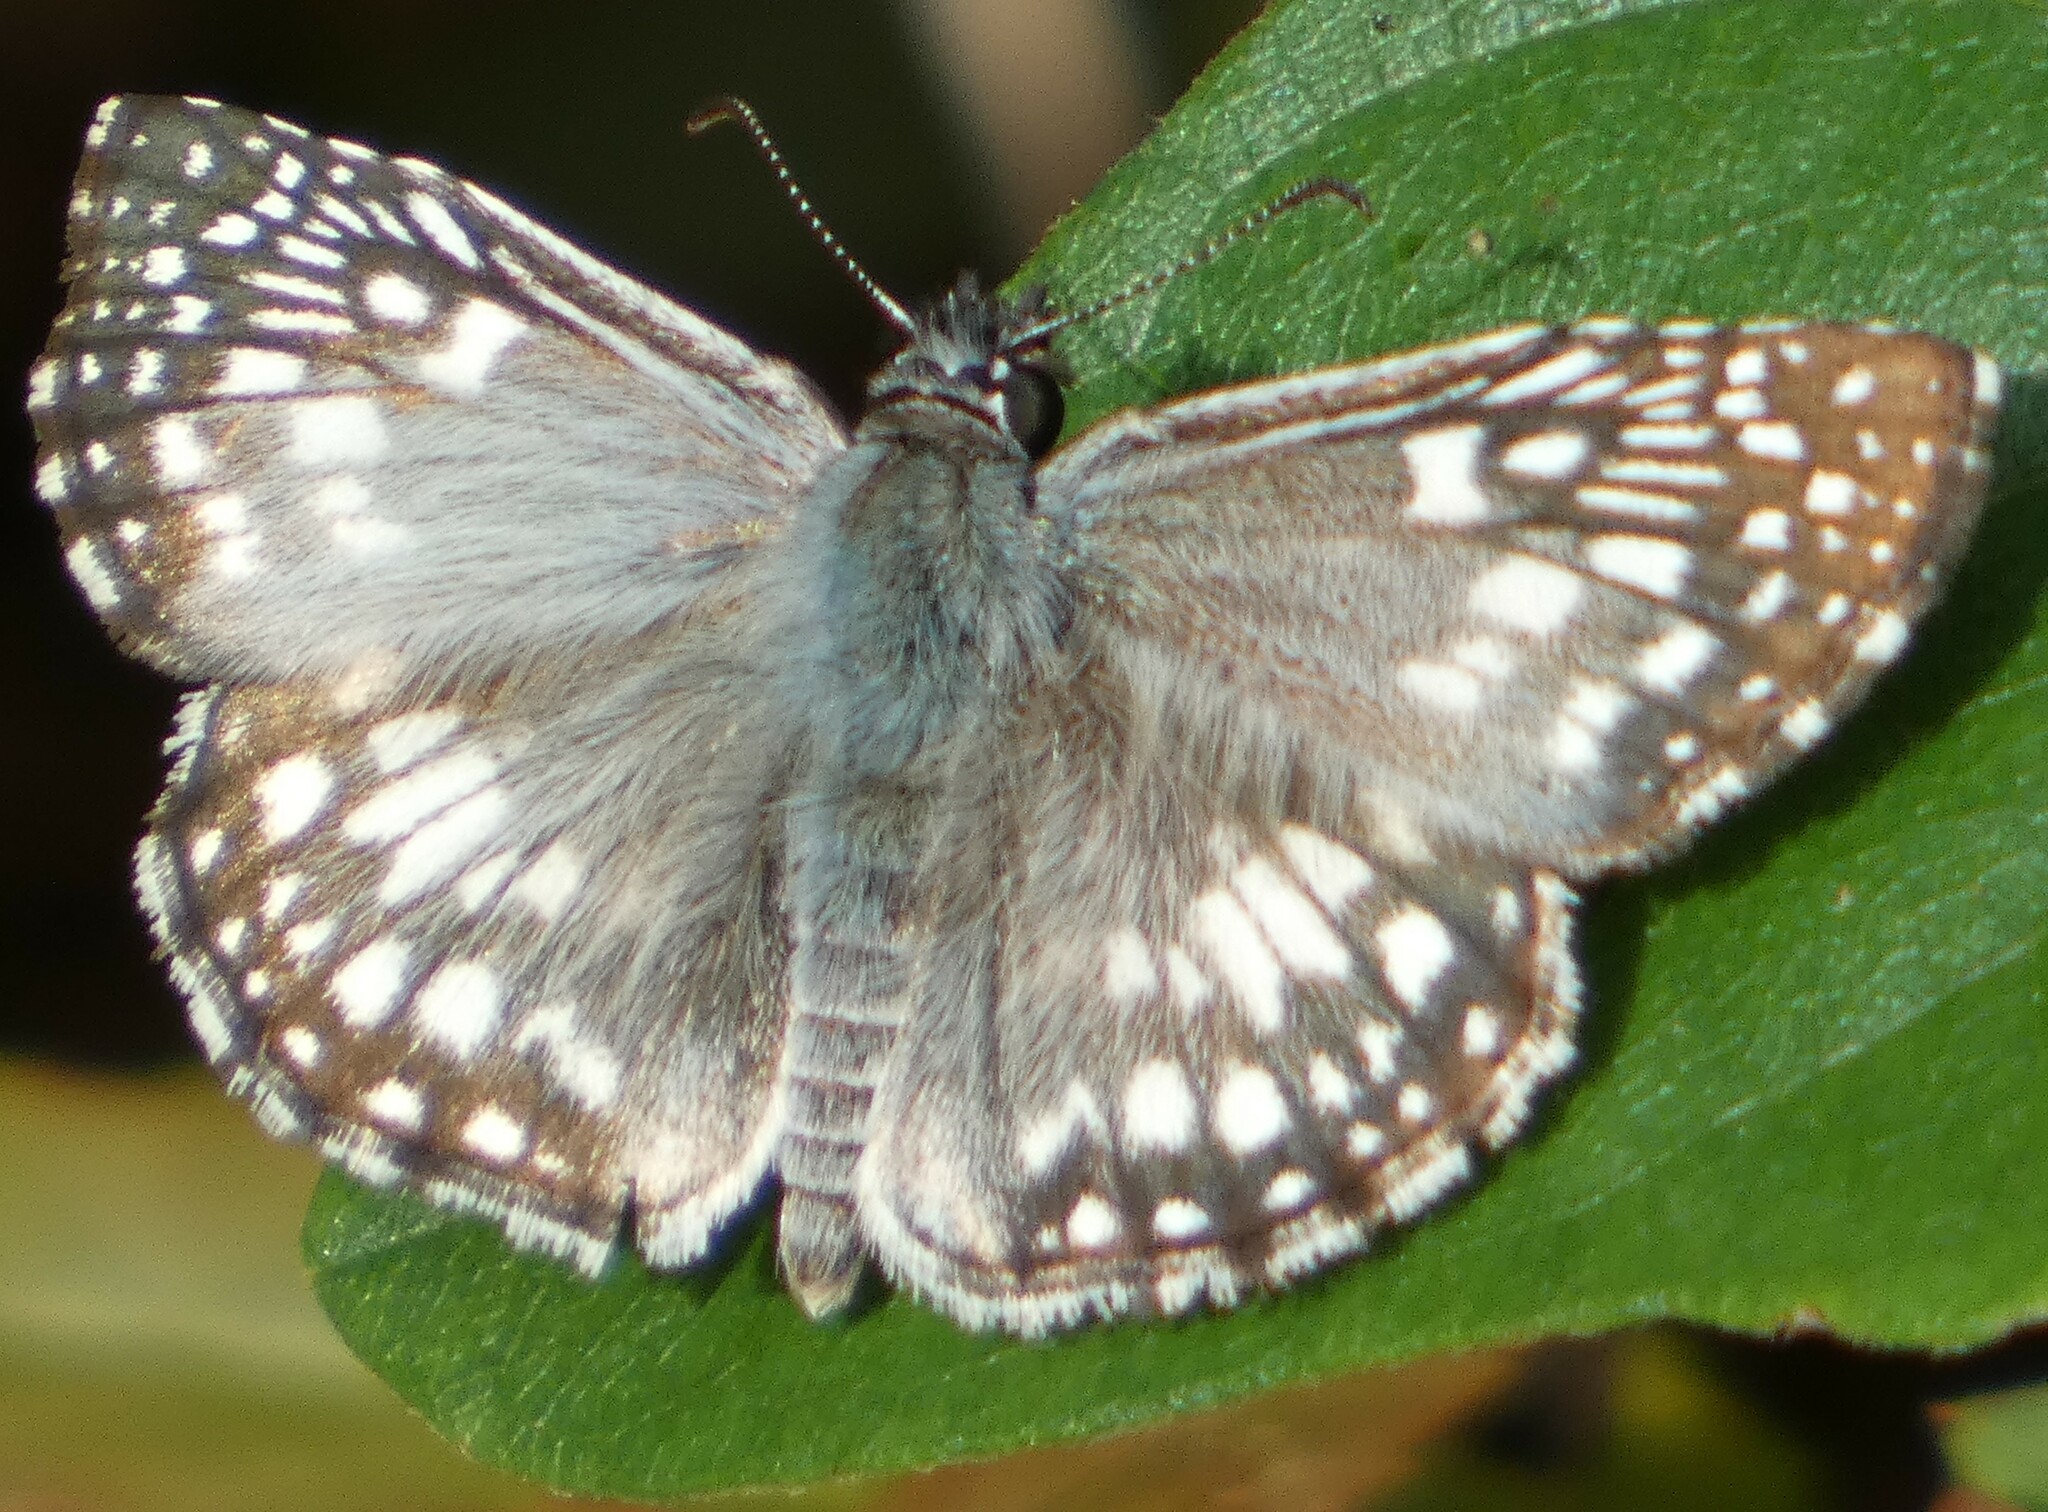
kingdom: Animalia
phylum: Arthropoda
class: Insecta
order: Lepidoptera
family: Hesperiidae
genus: Pyrgus
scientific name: Pyrgus oileus
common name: Tropical checkered-skipper
